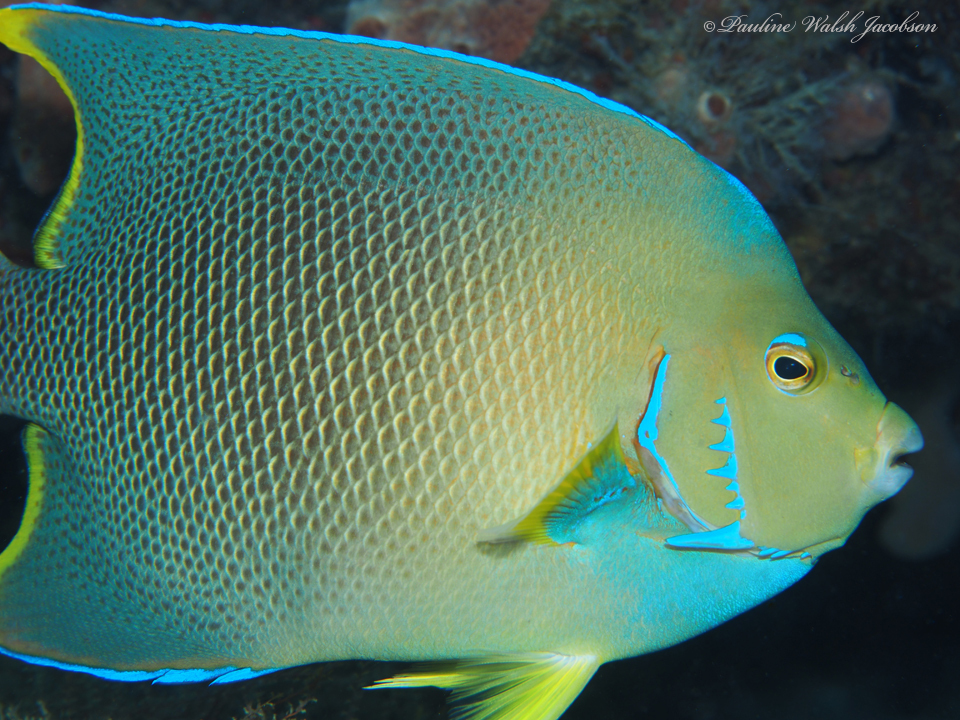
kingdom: Animalia
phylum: Chordata
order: Perciformes
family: Pomacanthidae
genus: Holacanthus
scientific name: Holacanthus bermudensis
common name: Blue angelfish
